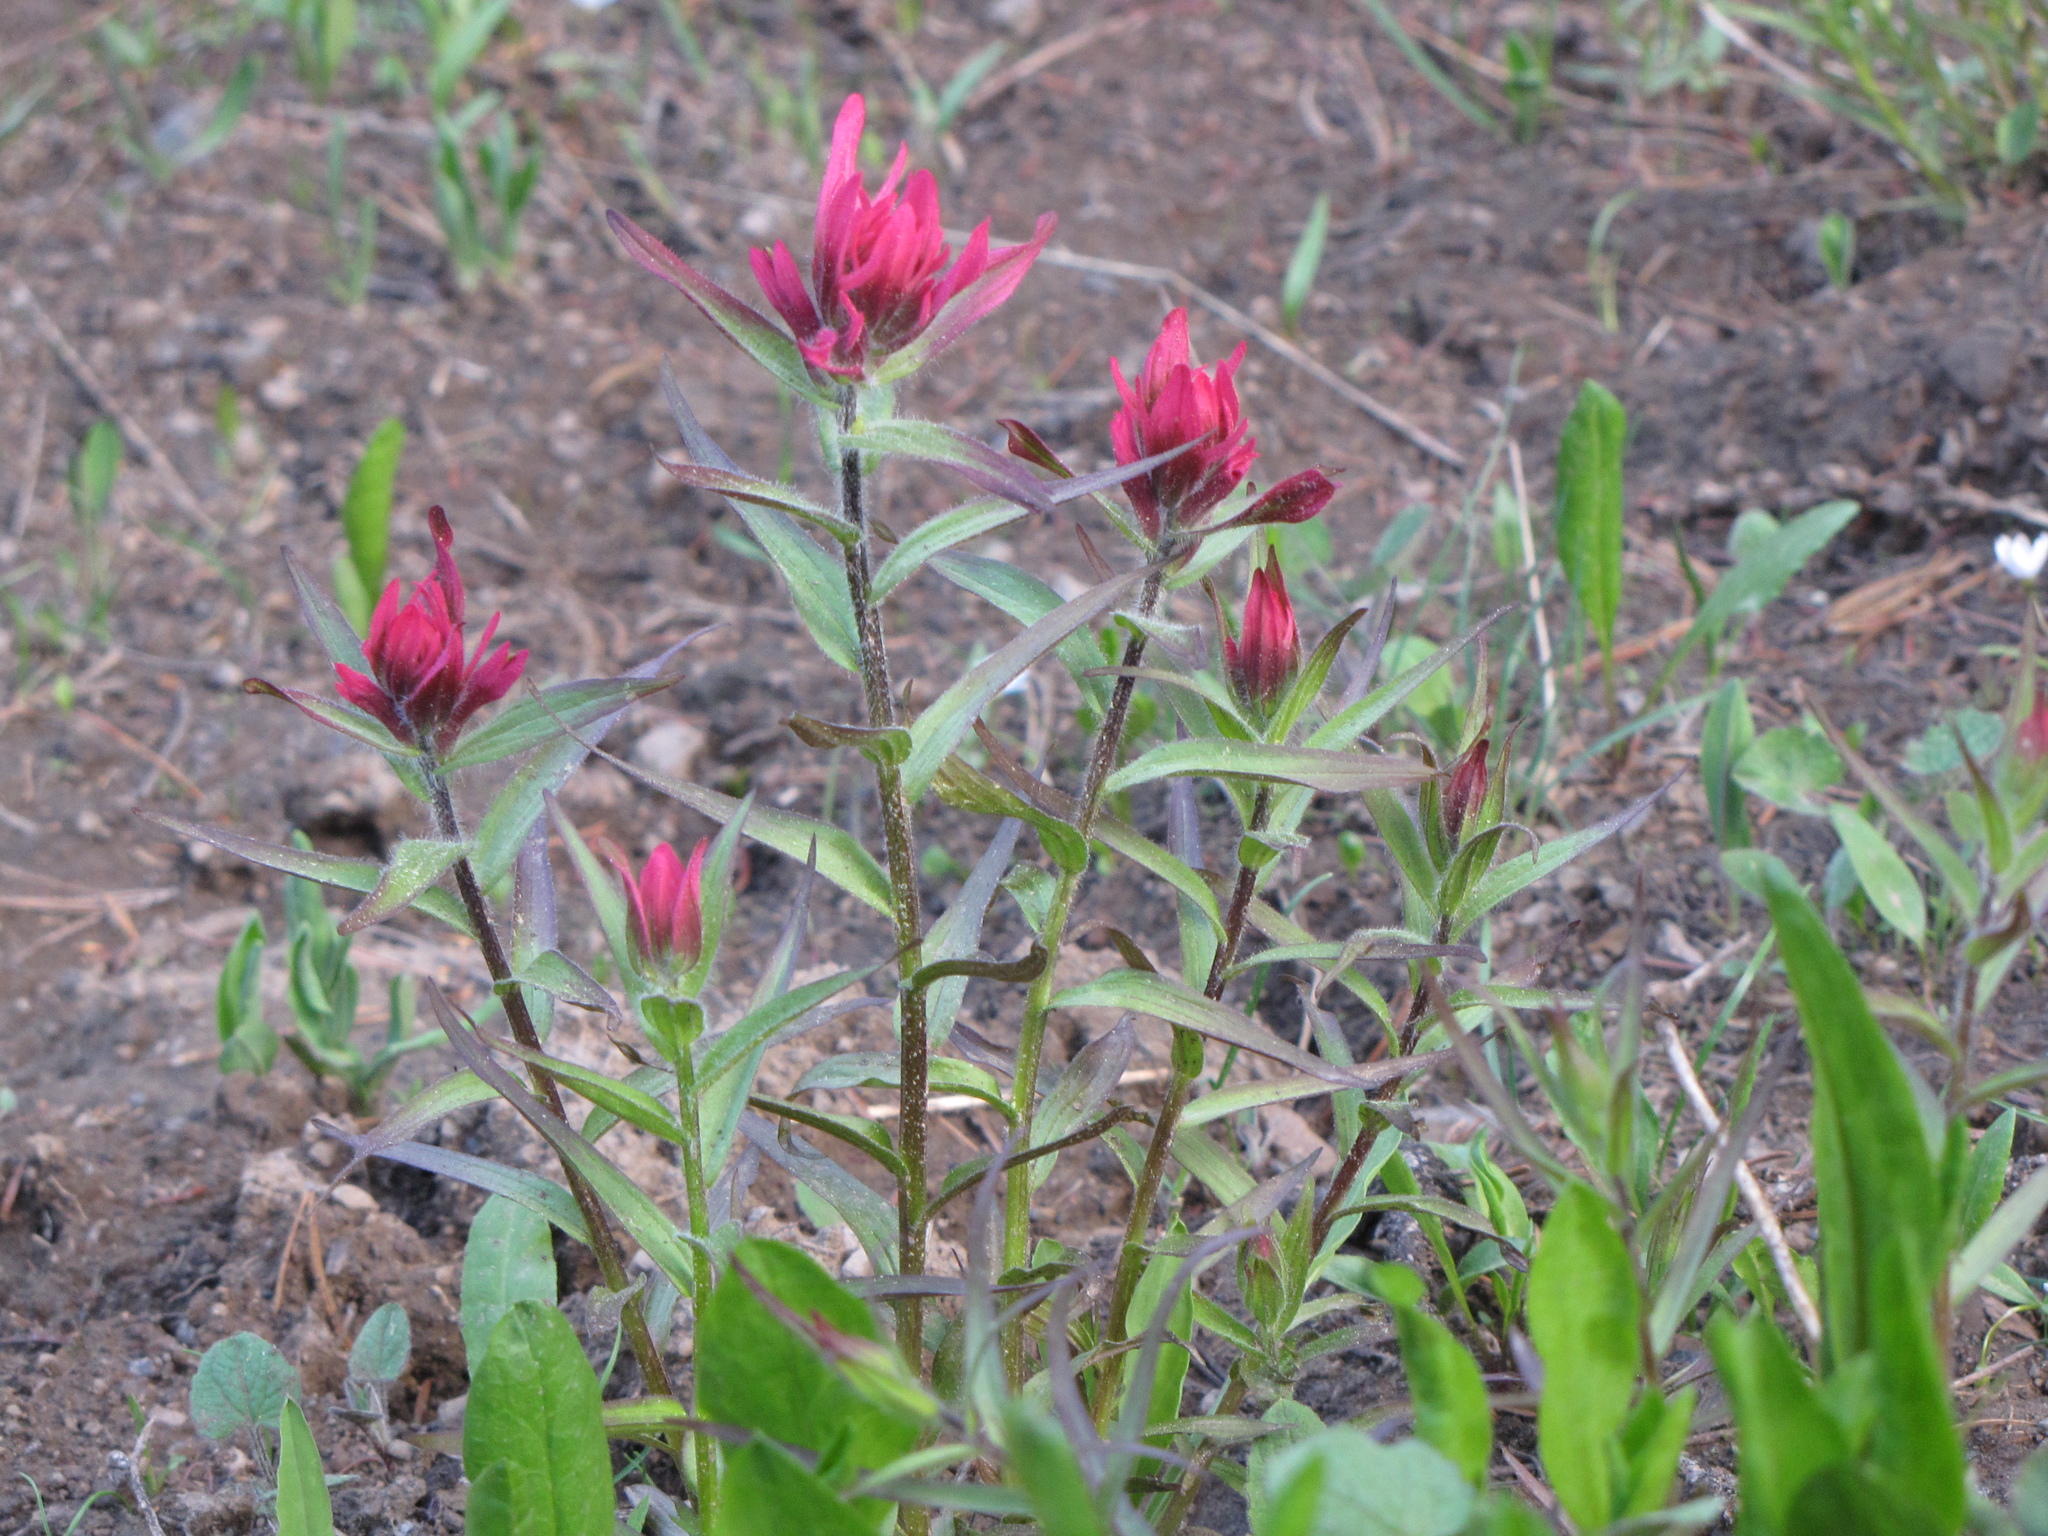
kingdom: Plantae
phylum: Tracheophyta
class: Magnoliopsida
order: Lamiales
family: Orobanchaceae
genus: Castilleja
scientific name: Castilleja rhexifolia
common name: Rocky mountain paintbrush
